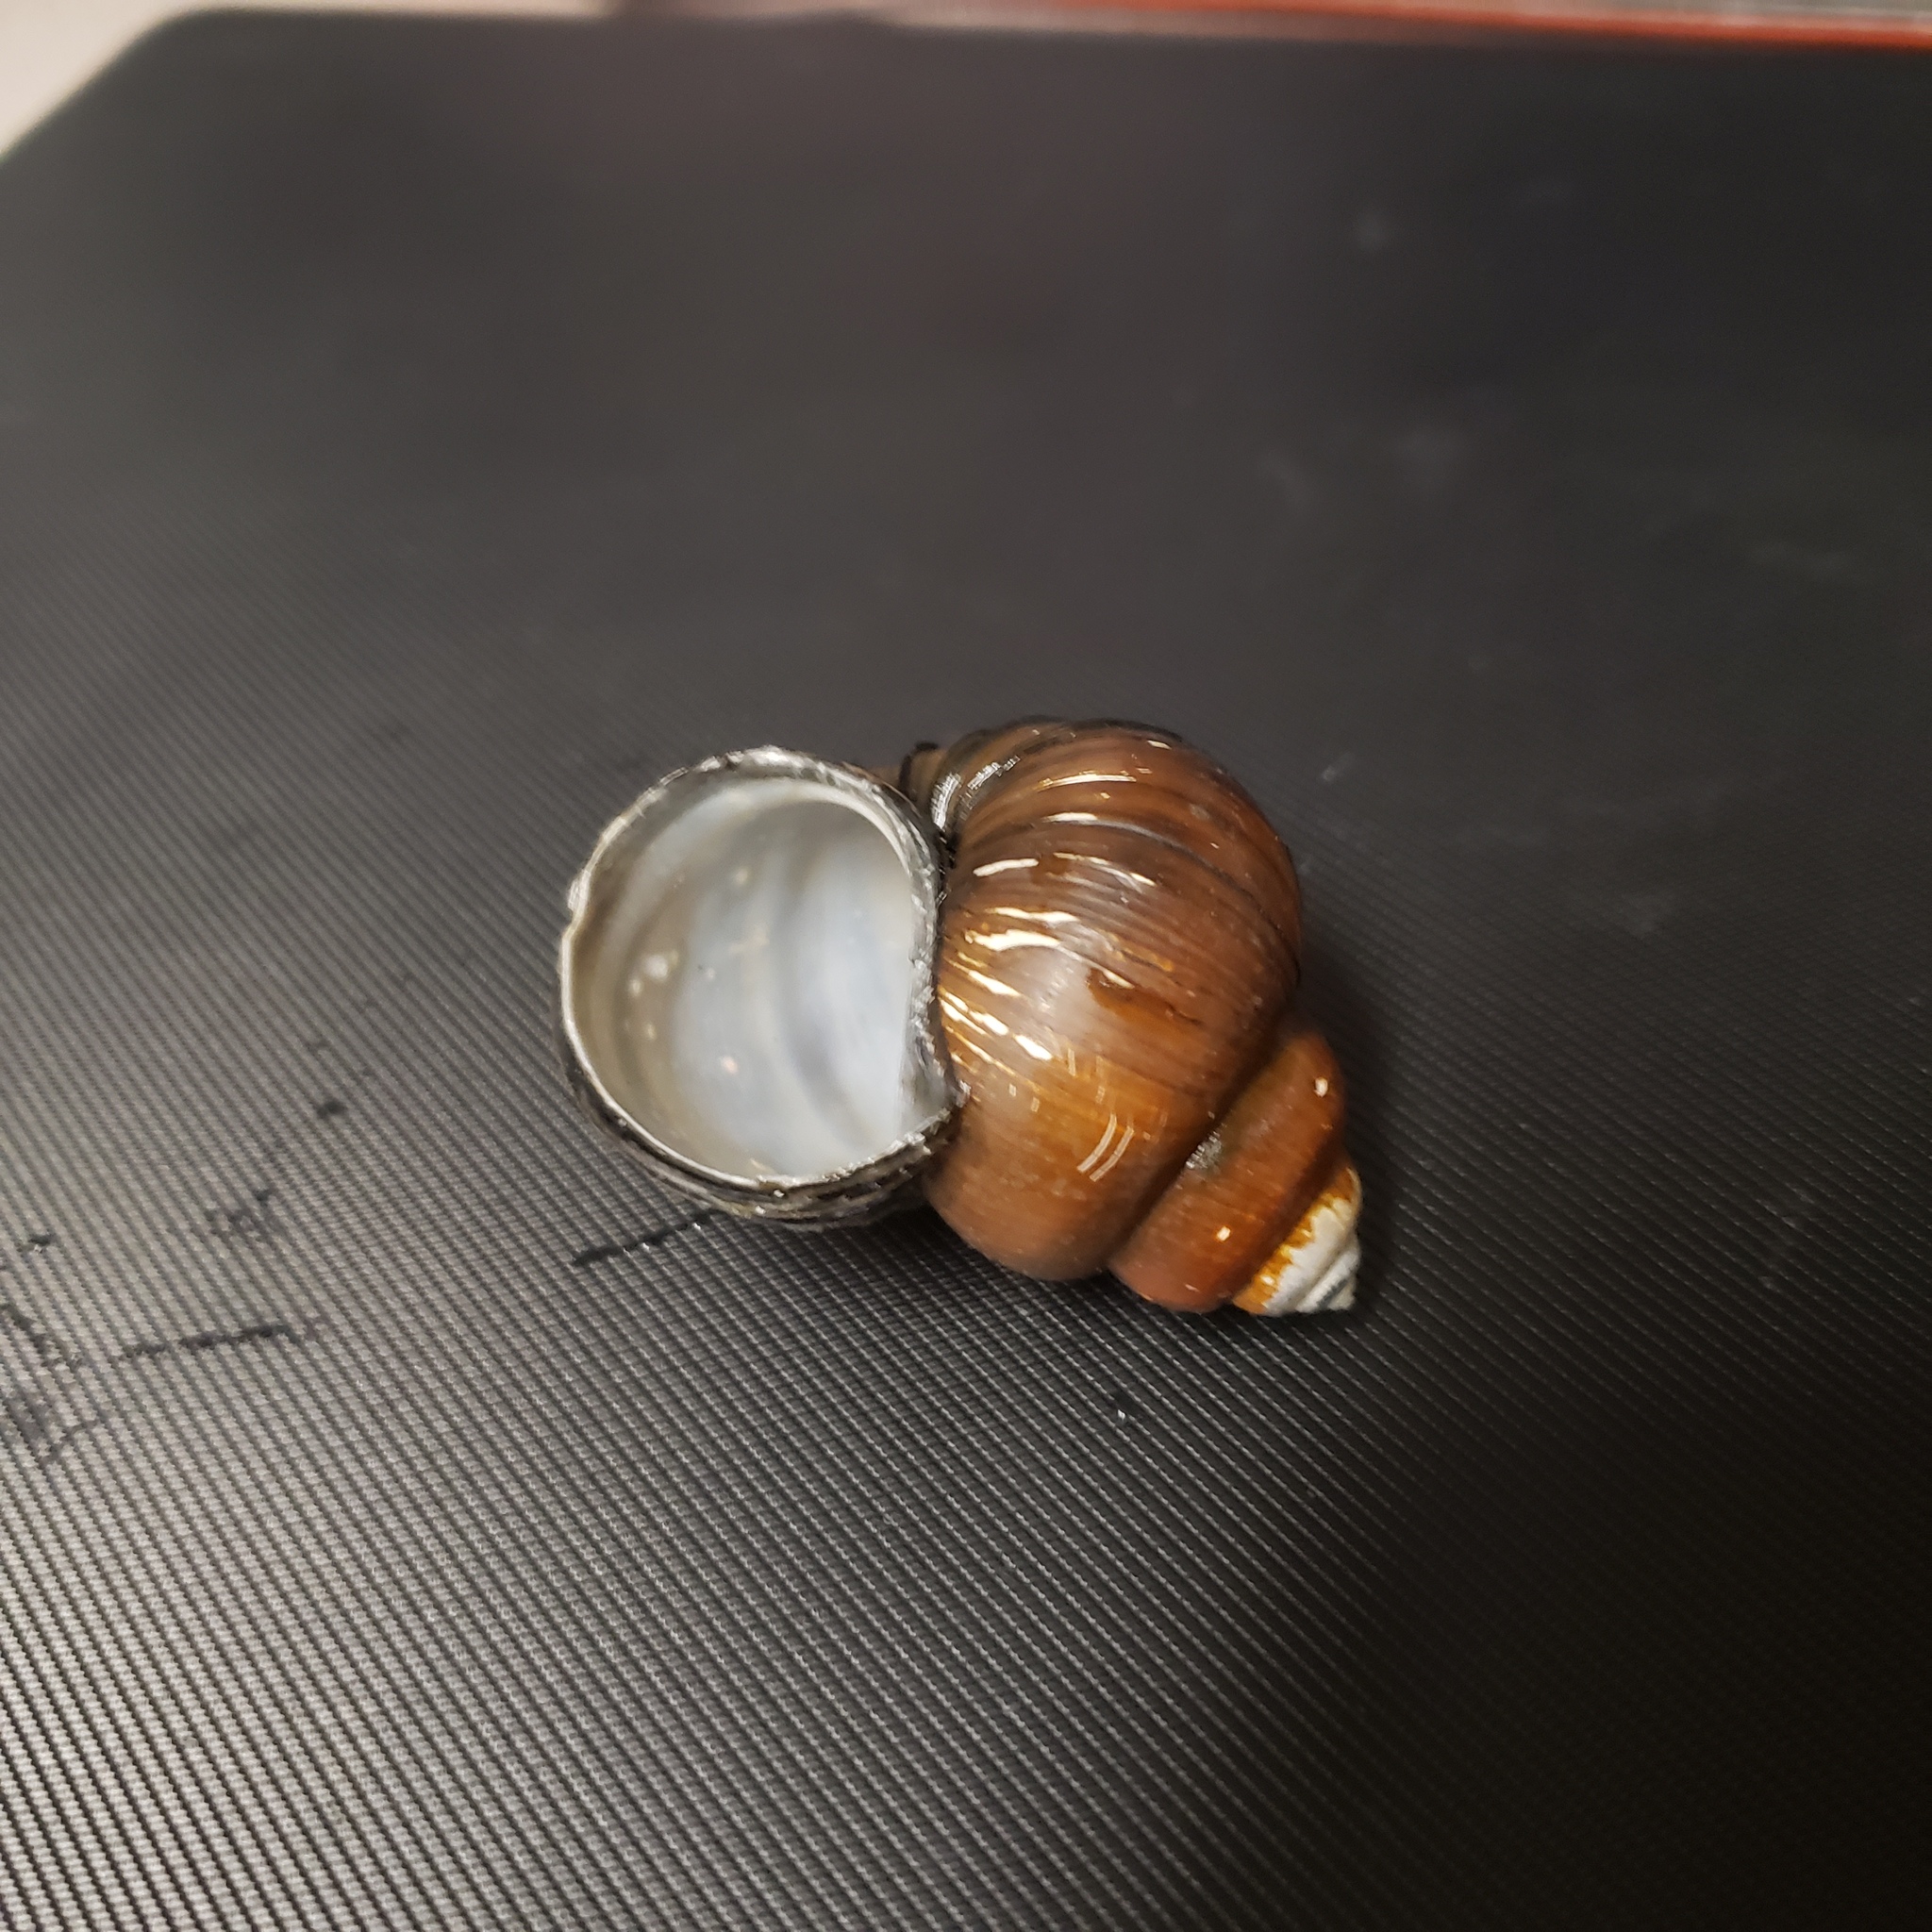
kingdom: Animalia
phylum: Mollusca
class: Gastropoda
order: Architaenioglossa
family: Viviparidae
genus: Cipangopaludina
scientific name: Cipangopaludina chinensis
